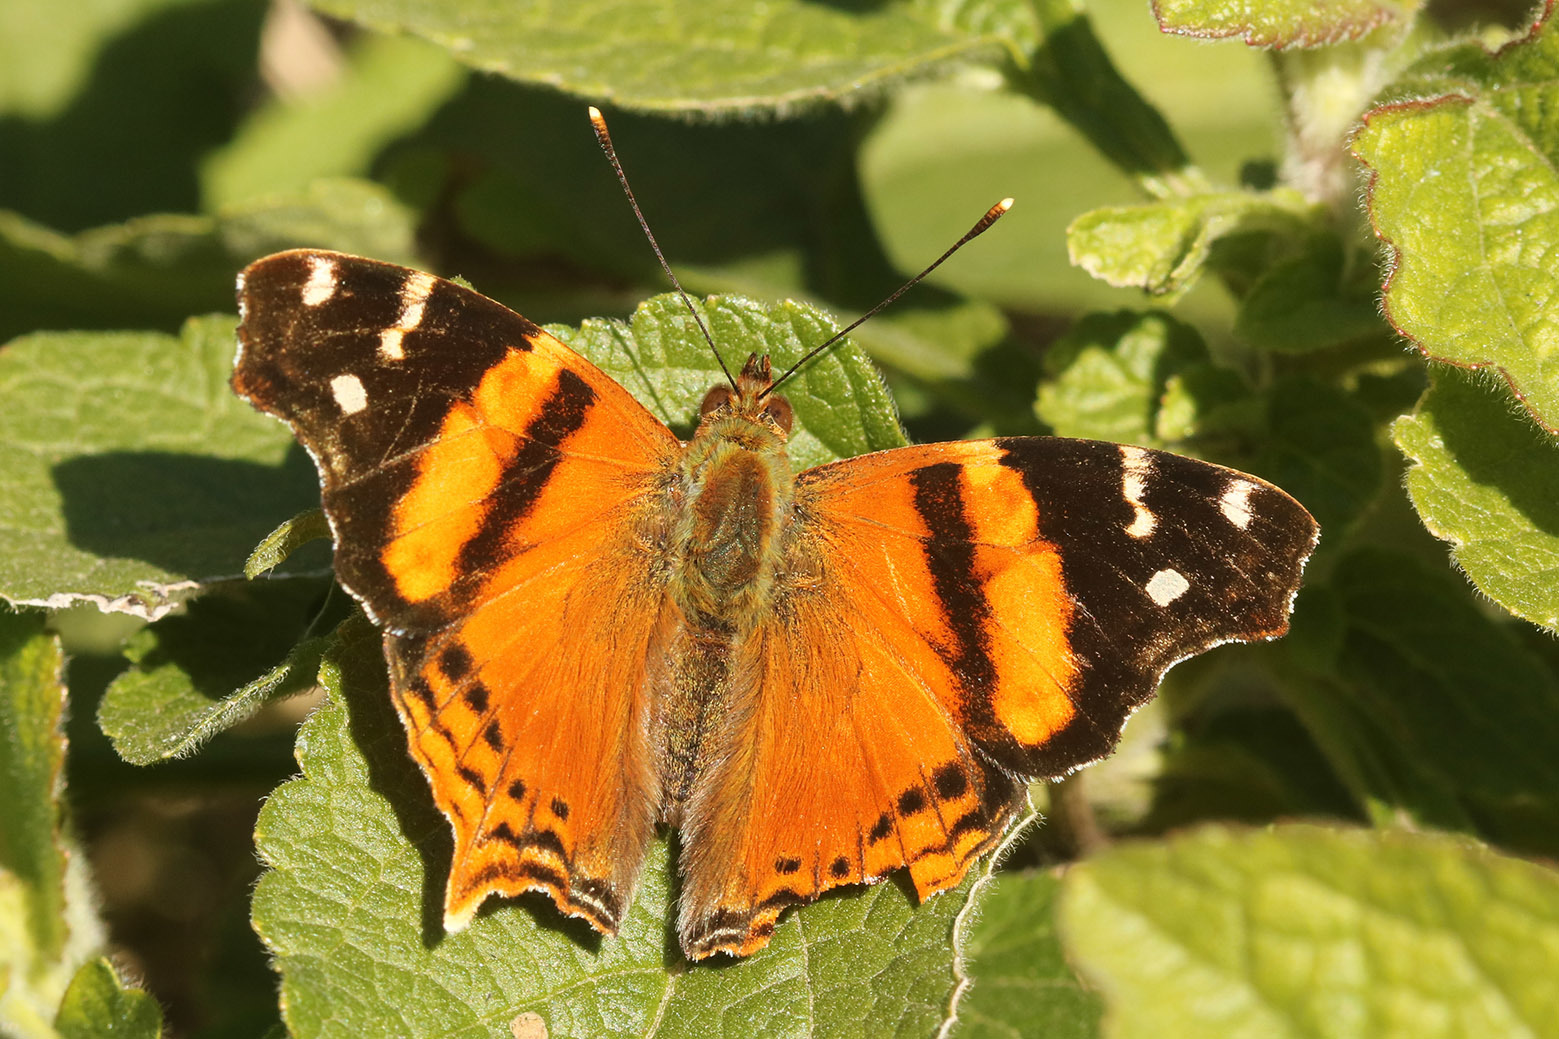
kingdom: Animalia
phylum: Arthropoda
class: Insecta
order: Lepidoptera
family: Nymphalidae
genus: Hypanartia
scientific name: Hypanartia bella
